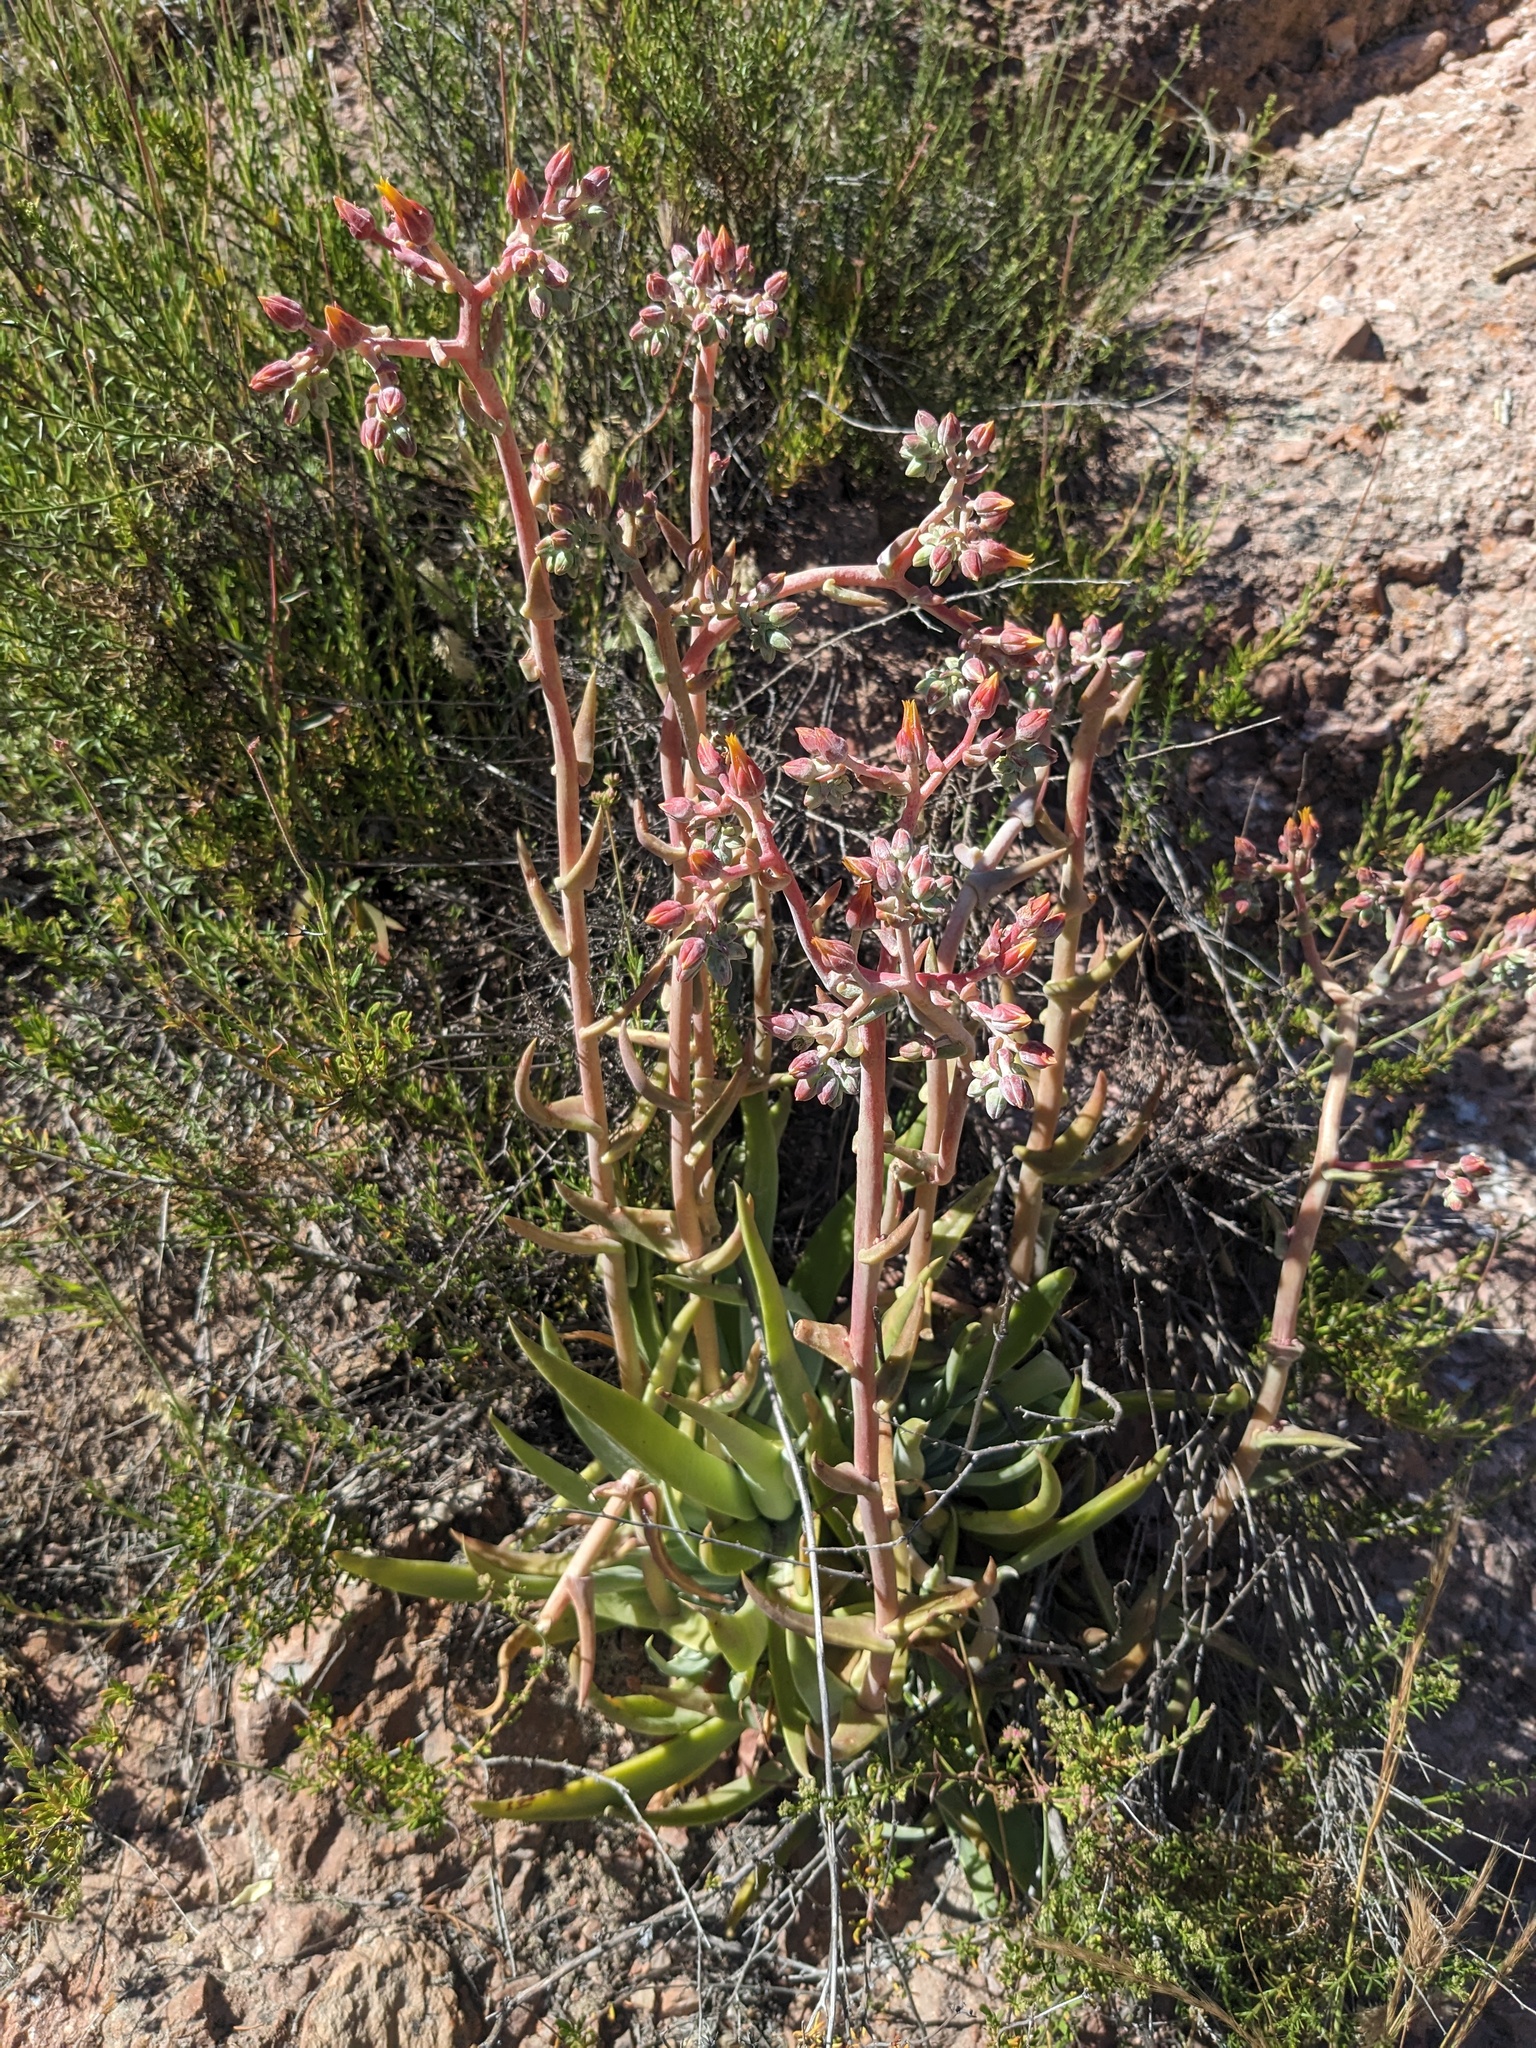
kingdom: Plantae
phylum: Tracheophyta
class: Magnoliopsida
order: Saxifragales
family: Crassulaceae
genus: Dudleya
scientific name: Dudleya lanceolata
